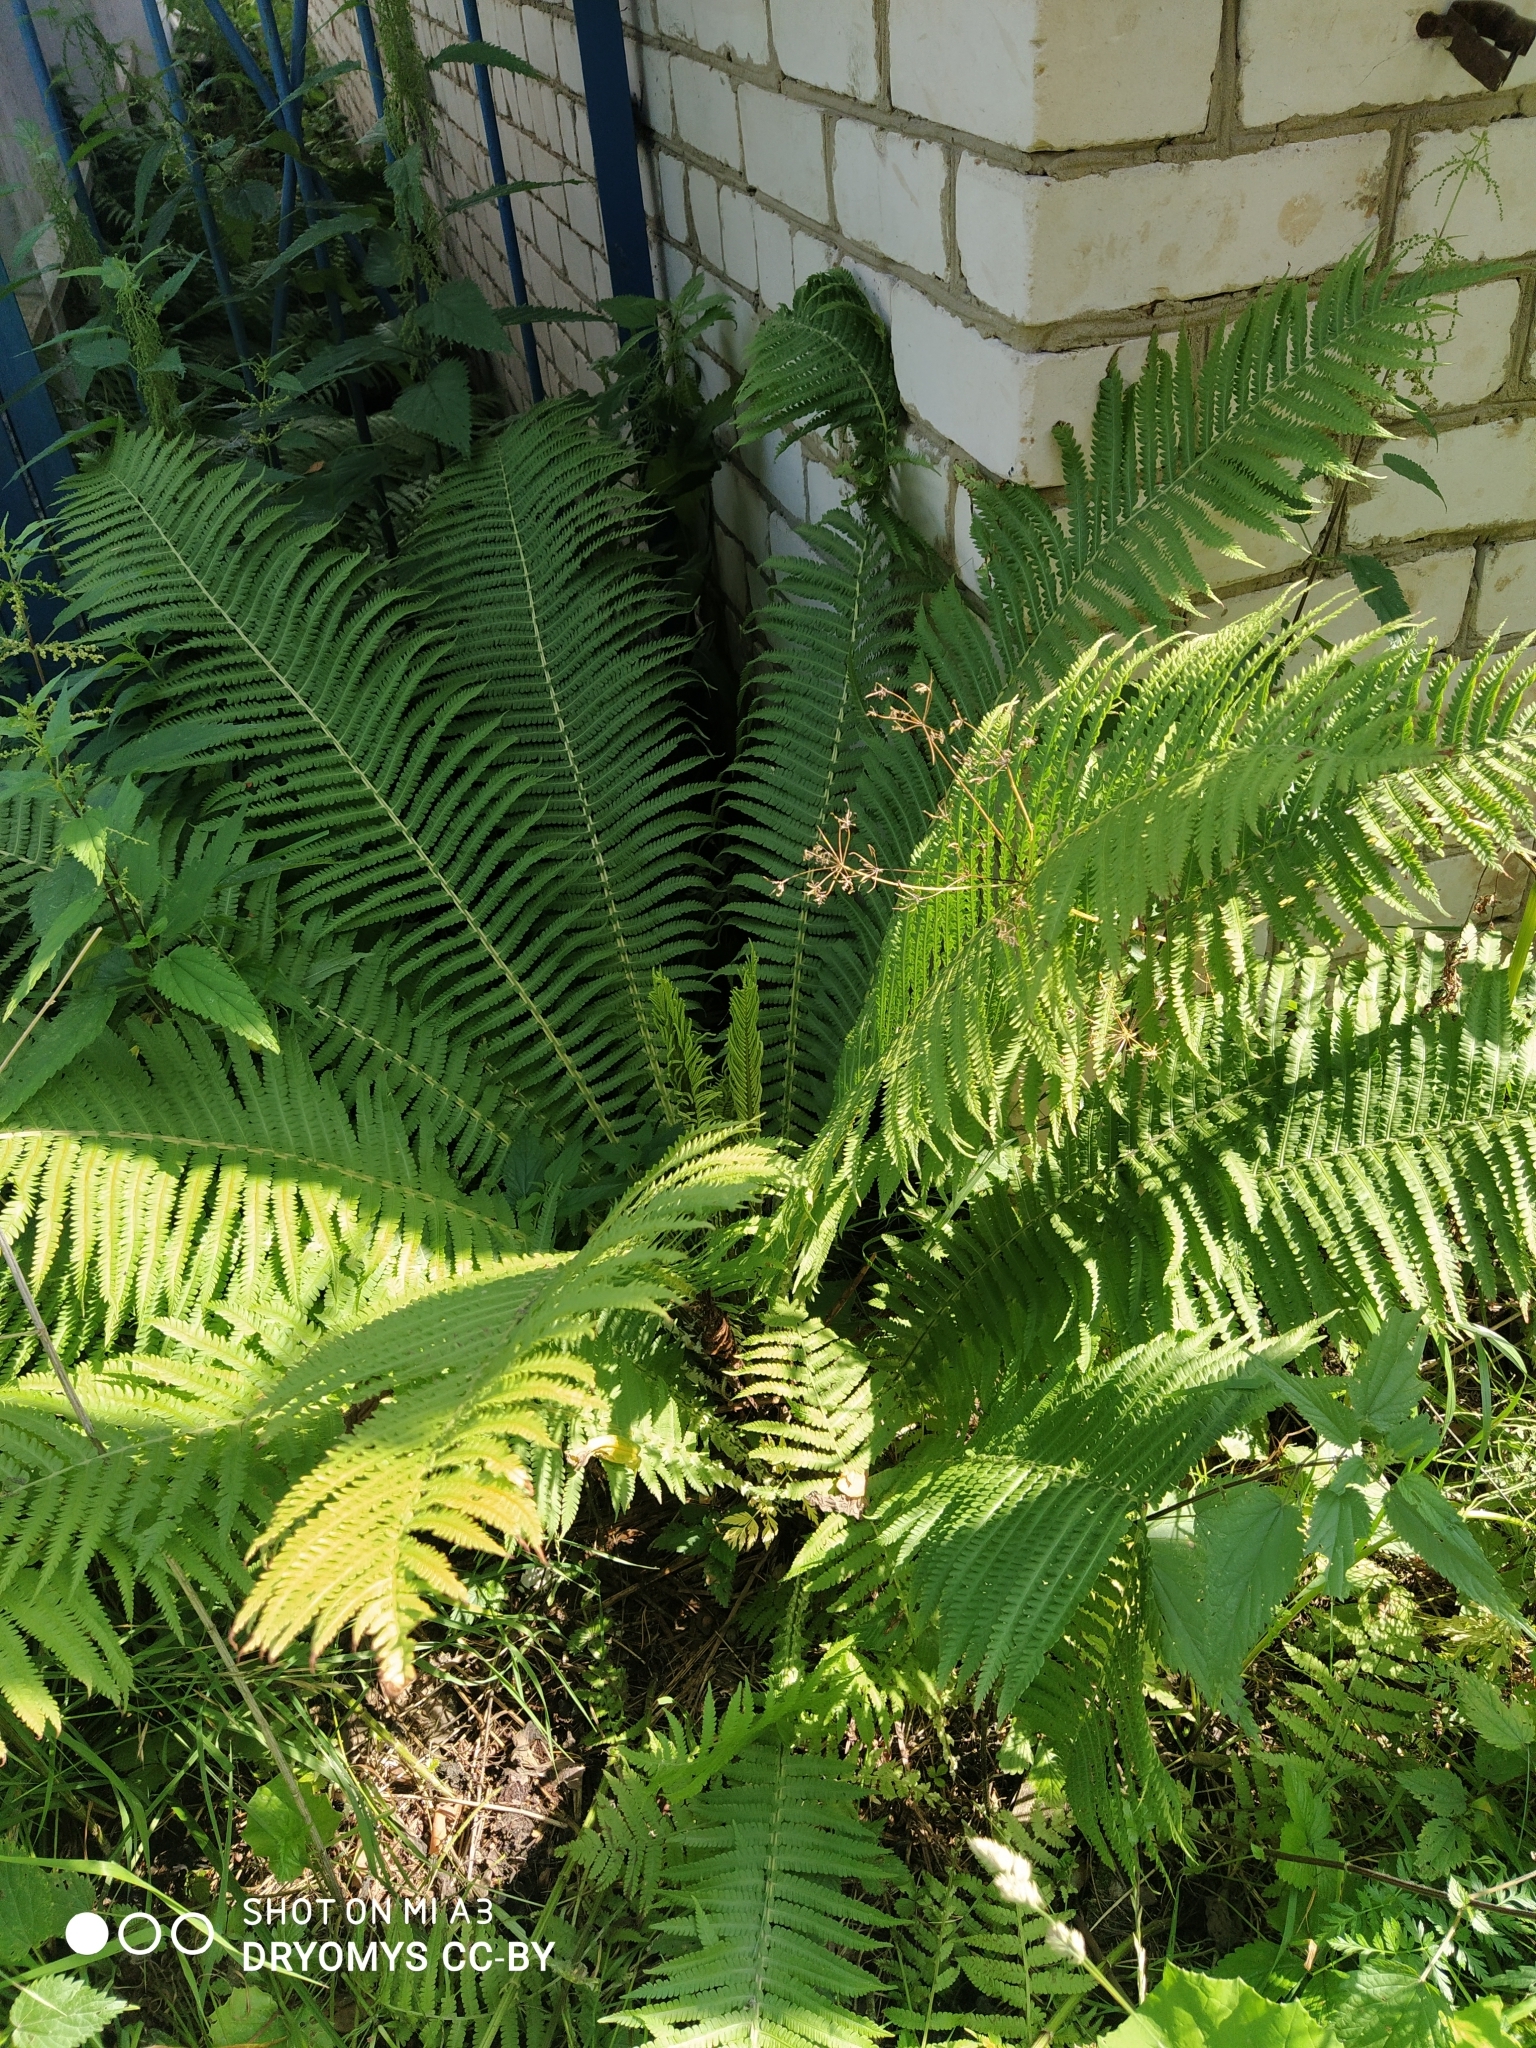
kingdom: Plantae
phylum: Tracheophyta
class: Polypodiopsida
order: Polypodiales
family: Onocleaceae
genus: Matteuccia
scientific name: Matteuccia struthiopteris
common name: Ostrich fern
